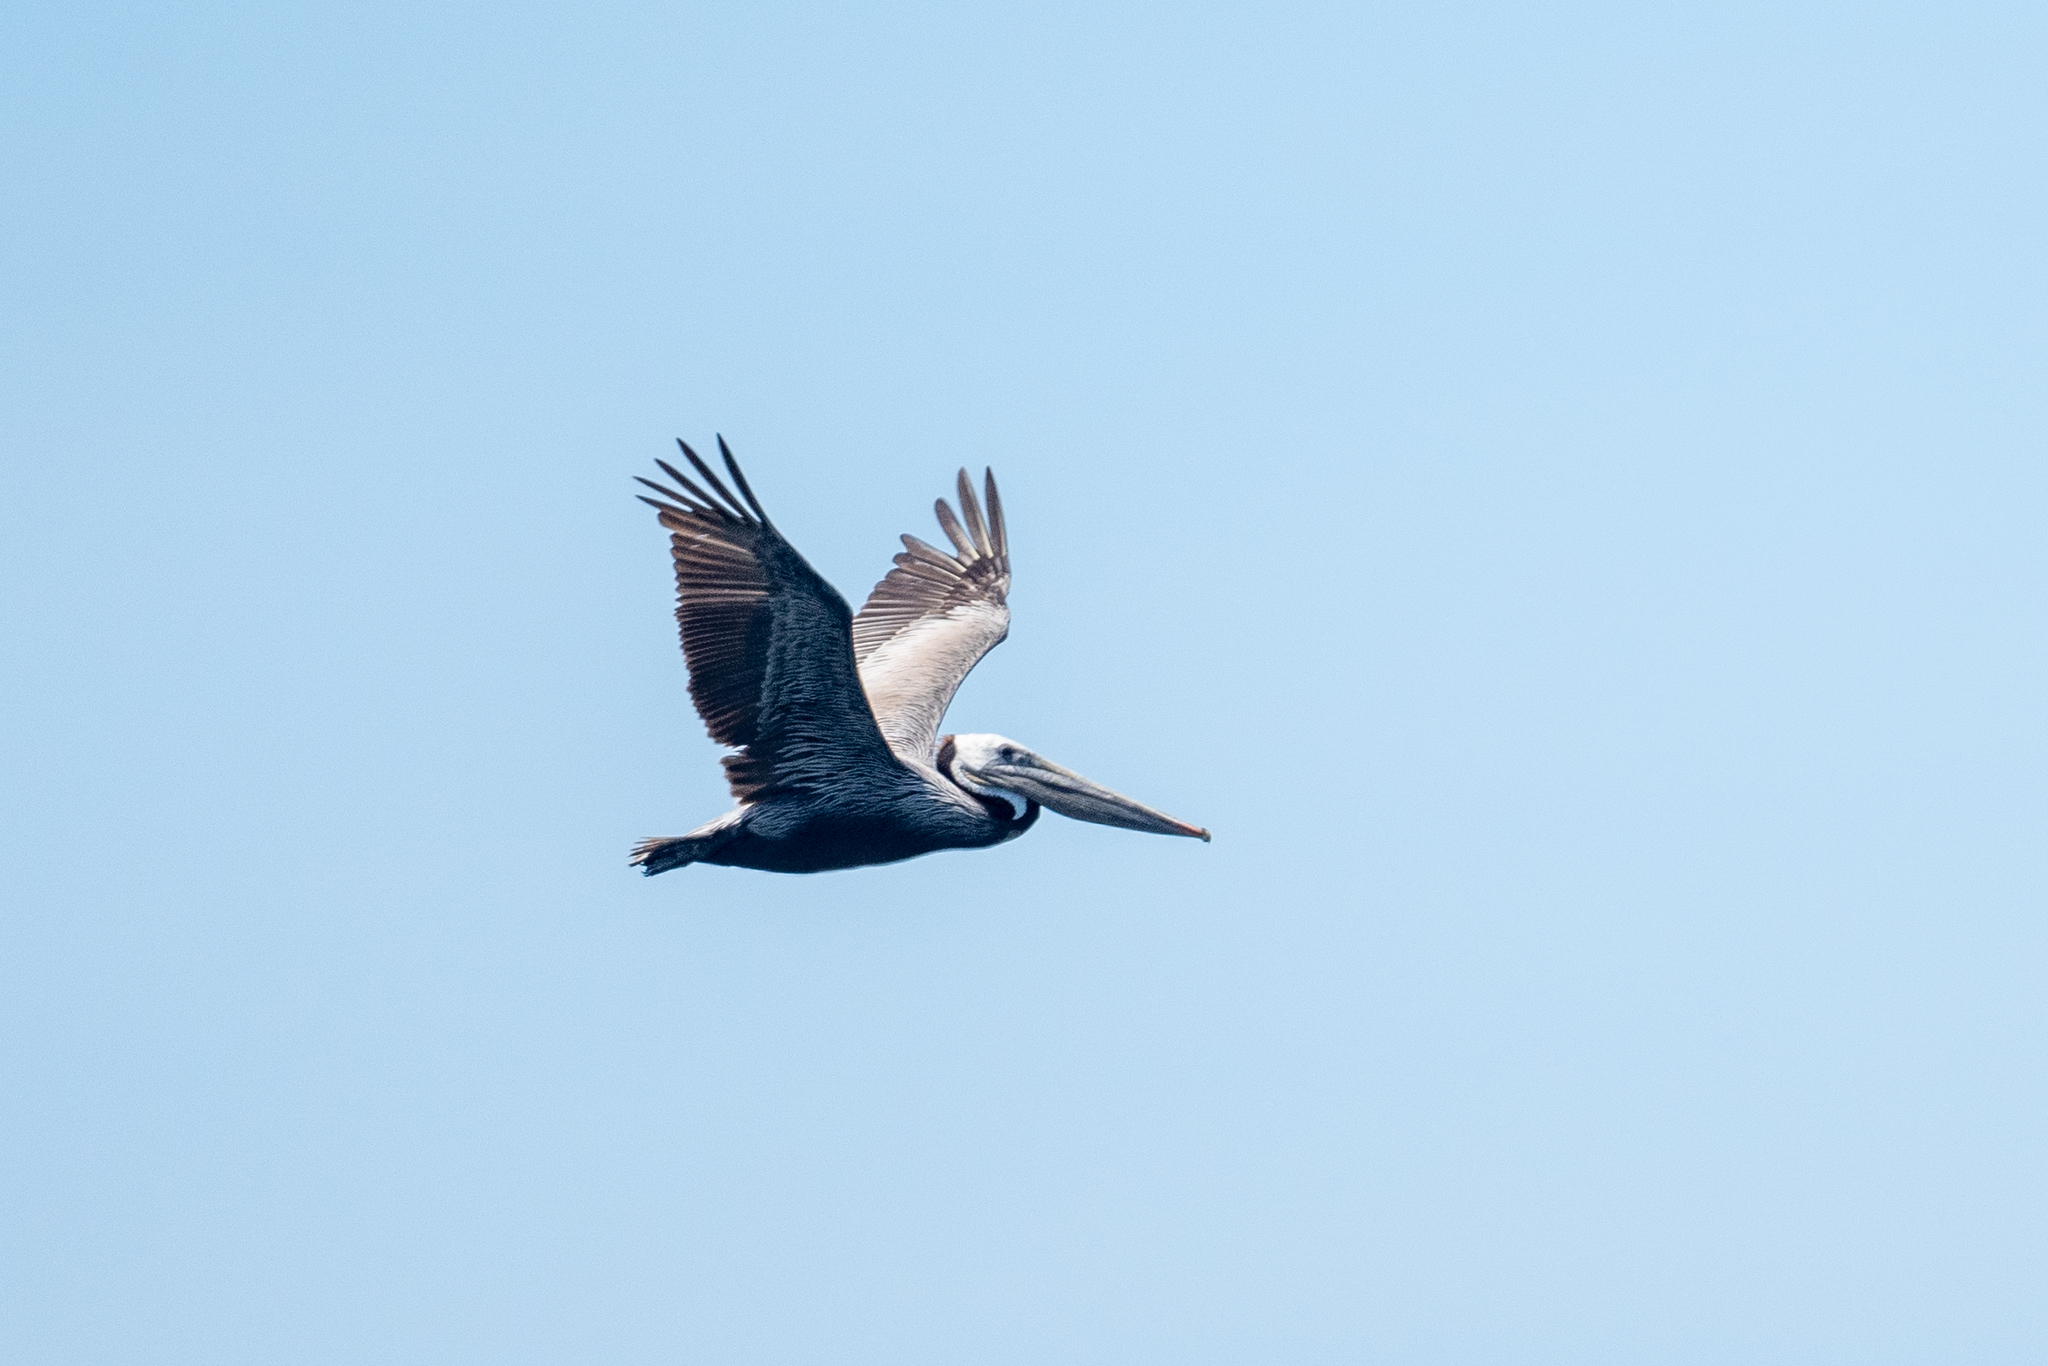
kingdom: Animalia
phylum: Chordata
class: Aves
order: Pelecaniformes
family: Pelecanidae
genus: Pelecanus
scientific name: Pelecanus occidentalis
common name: Brown pelican
